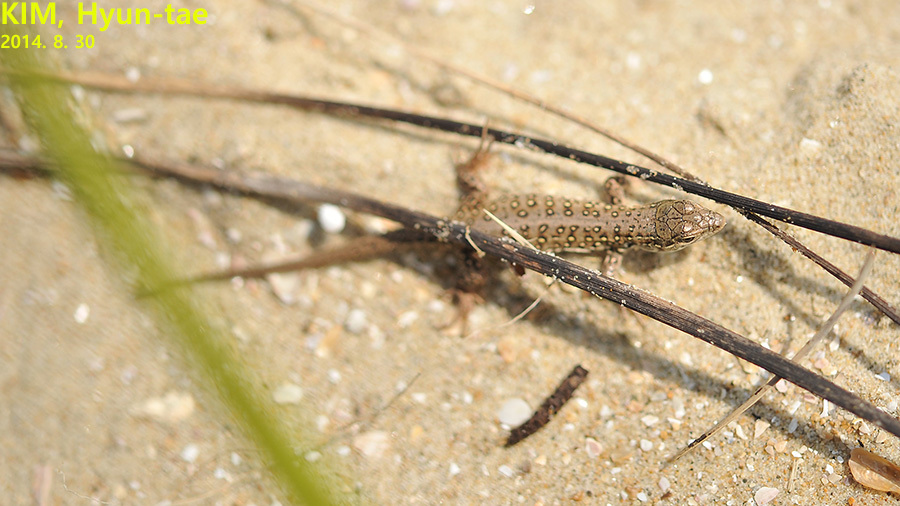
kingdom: Animalia
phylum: Chordata
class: Squamata
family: Lacertidae
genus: Eremias
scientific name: Eremias argus
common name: Mongolia racerunner
